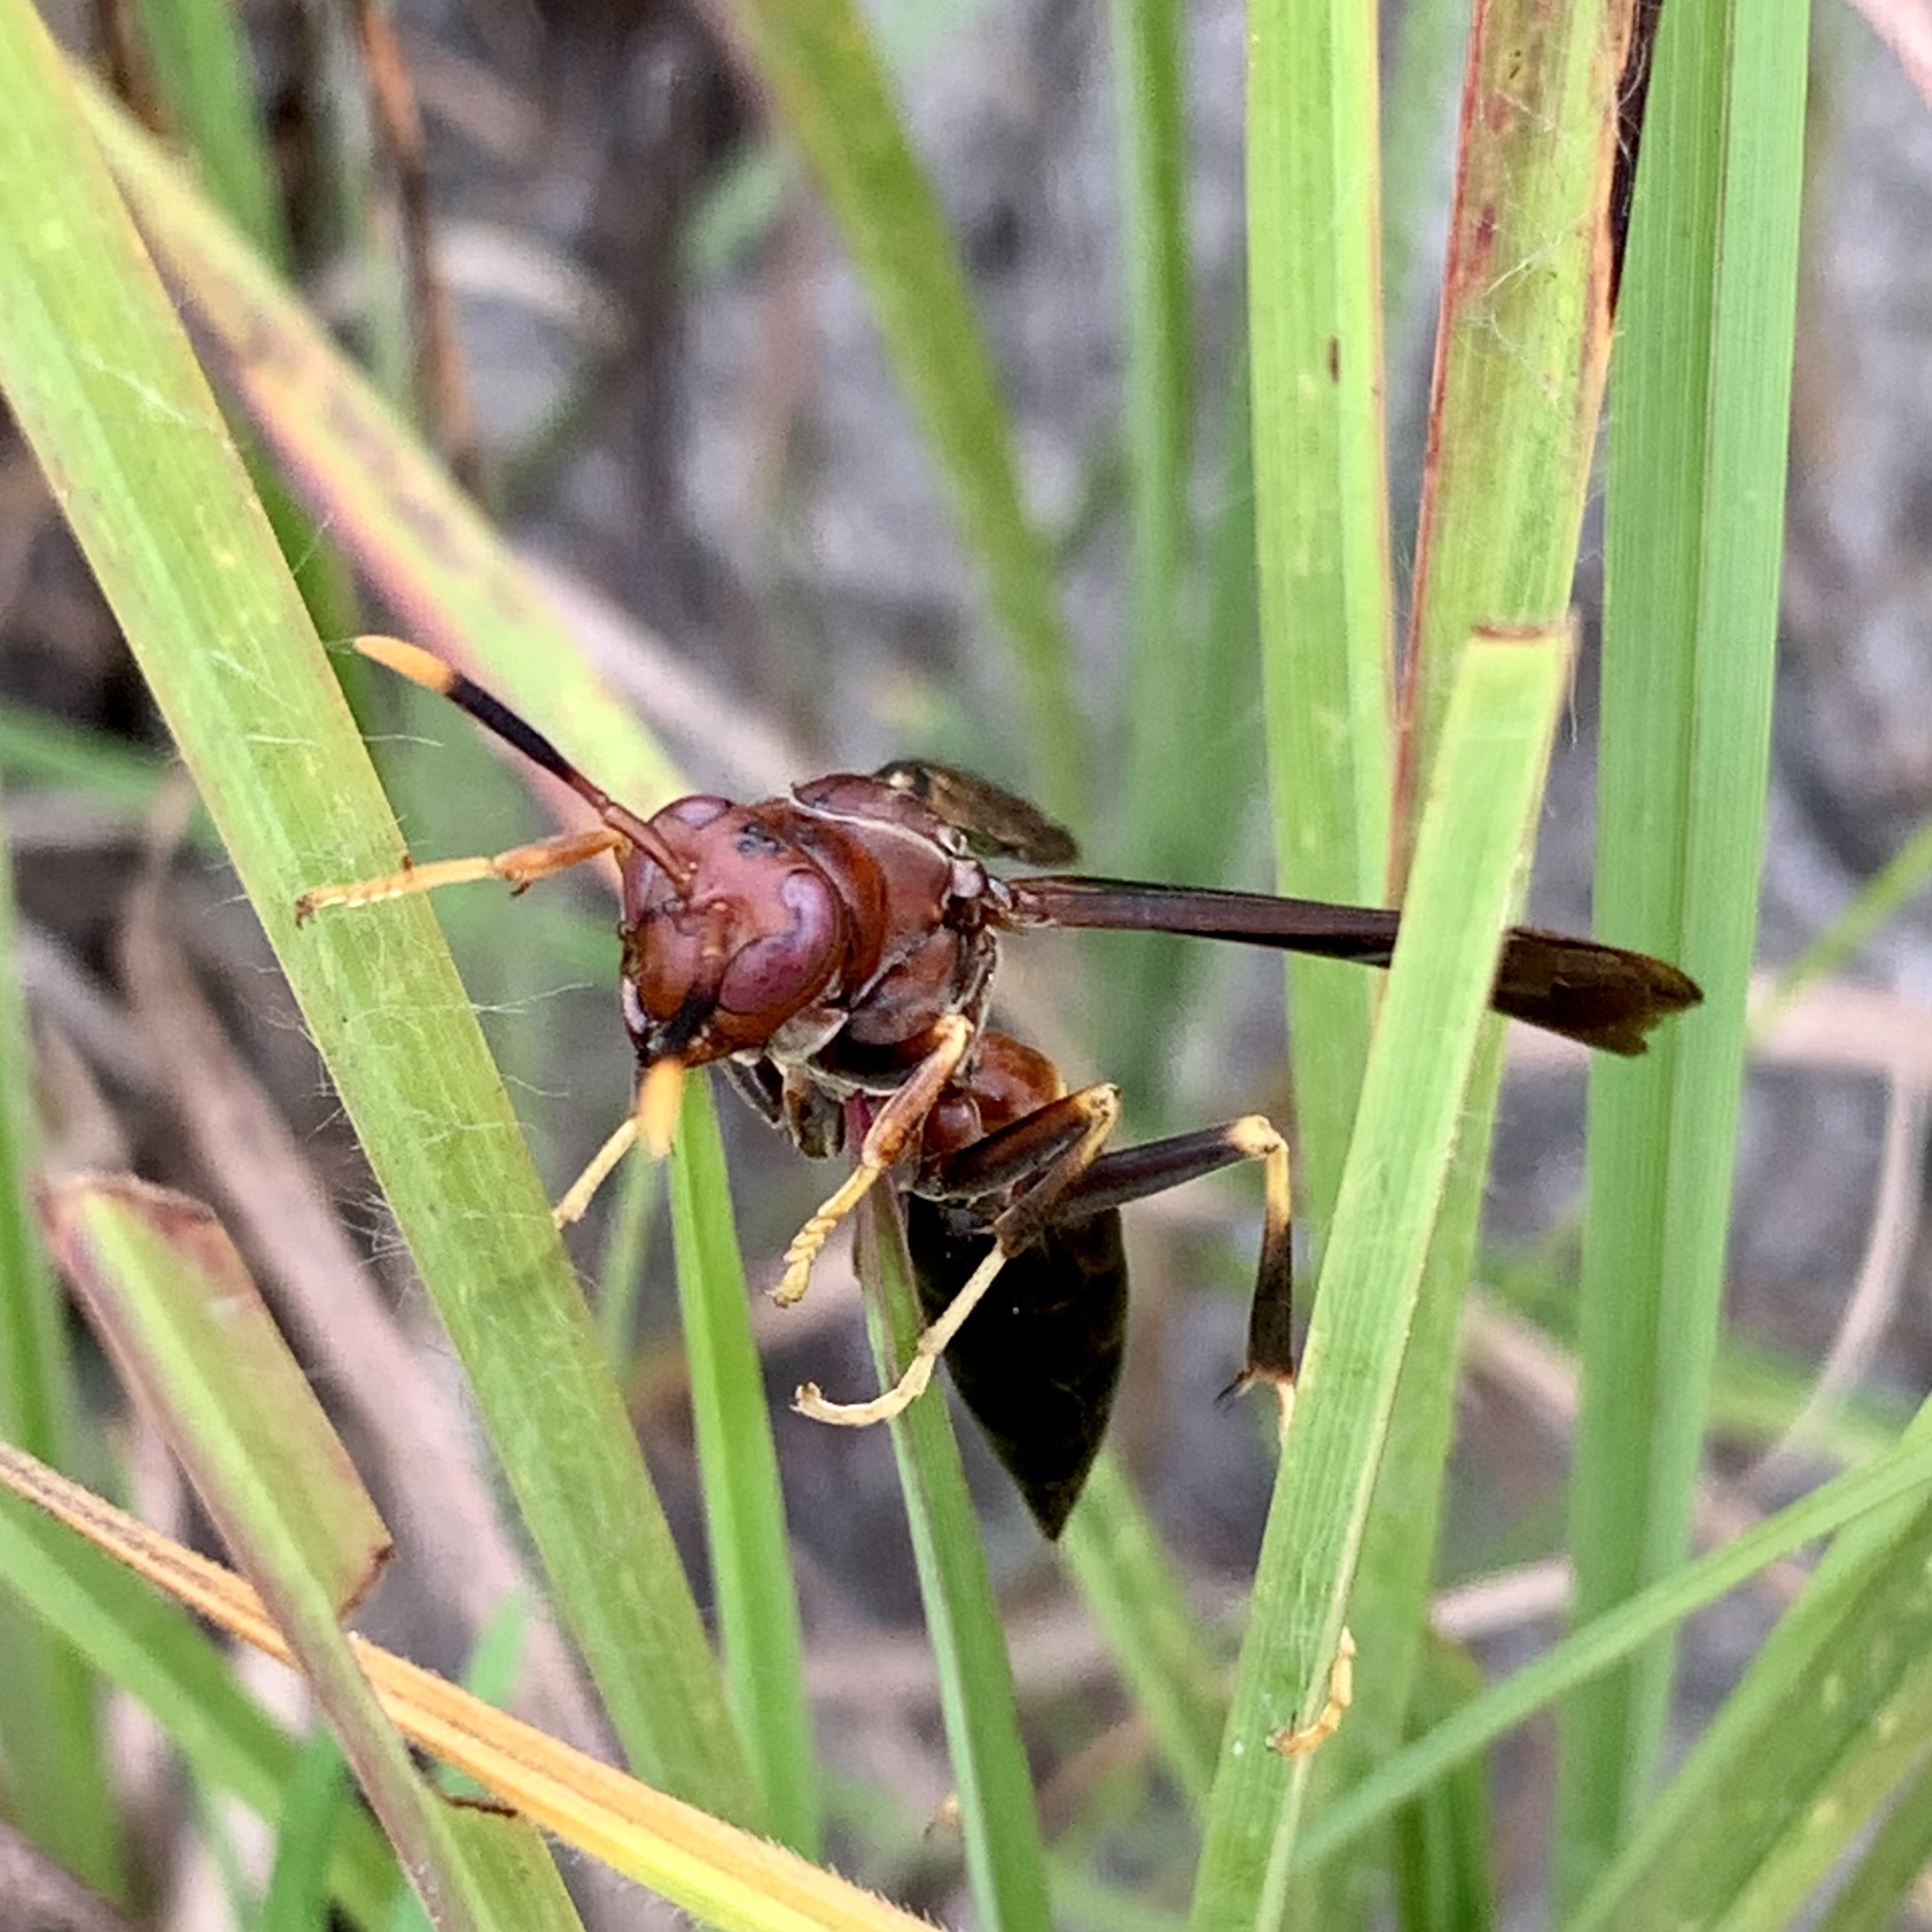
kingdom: Animalia
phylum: Arthropoda
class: Insecta
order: Hymenoptera
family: Eumenidae
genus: Polistes
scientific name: Polistes annularis
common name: Ringed paper wasp
